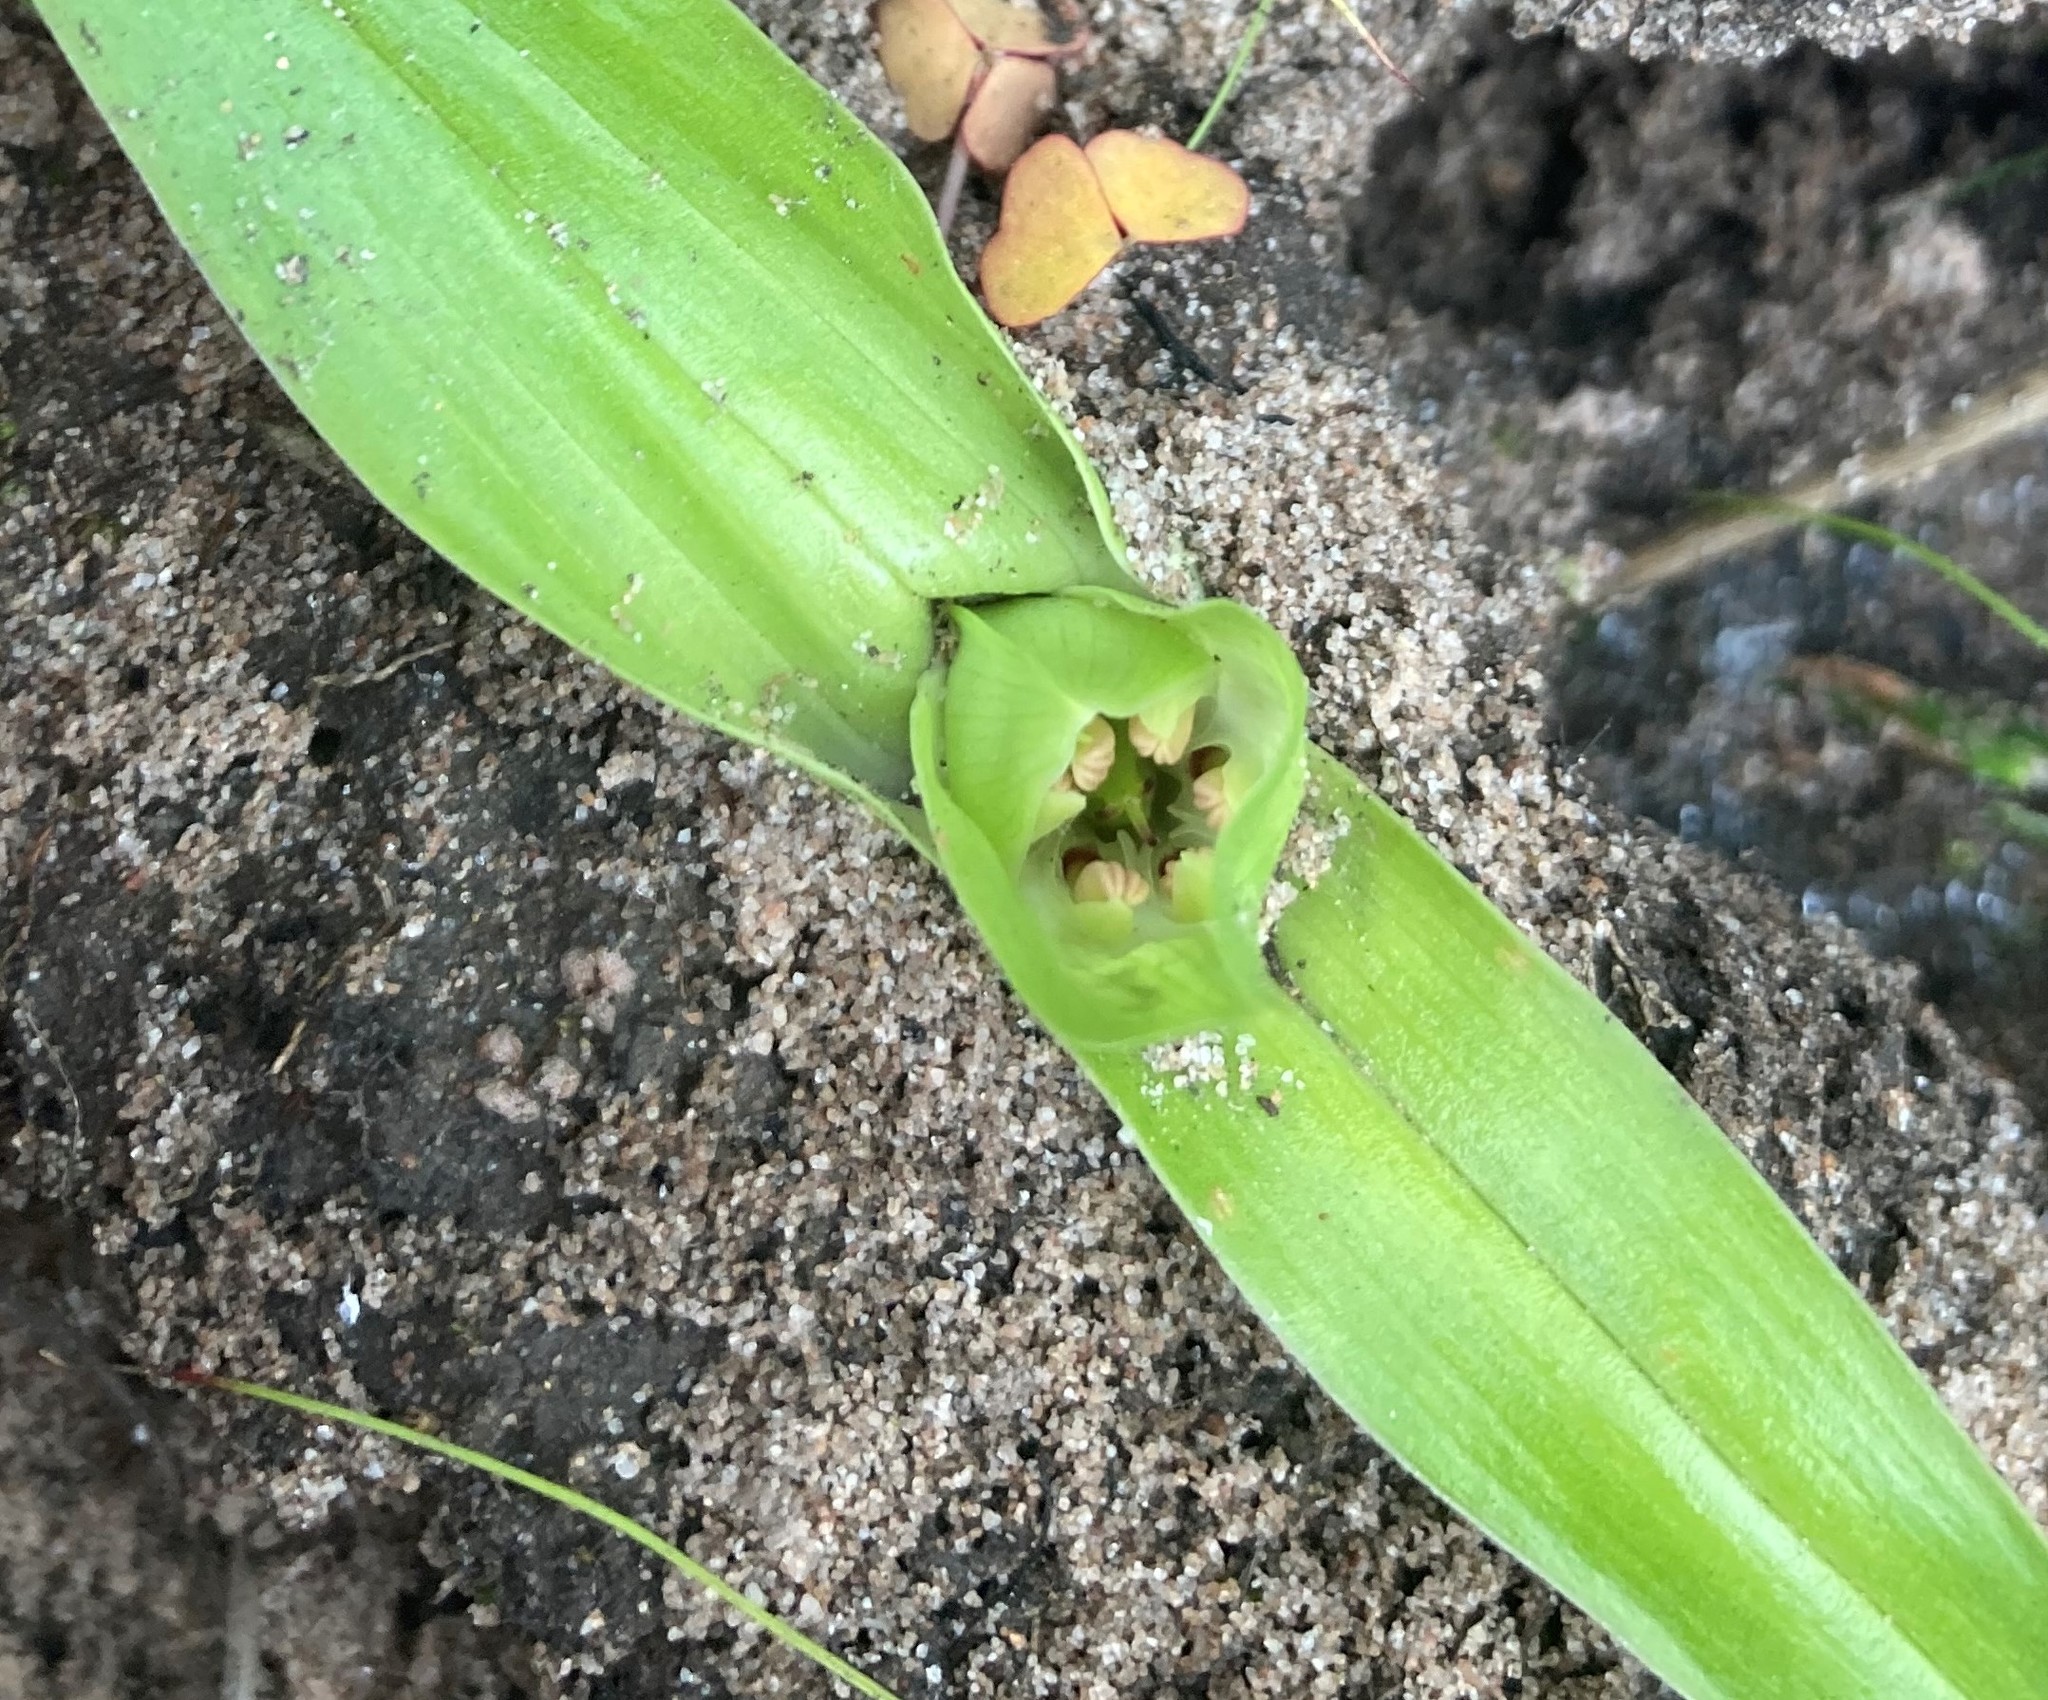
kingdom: Plantae
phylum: Tracheophyta
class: Liliopsida
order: Liliales
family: Colchicaceae
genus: Colchicum
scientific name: Colchicum eucomoides
